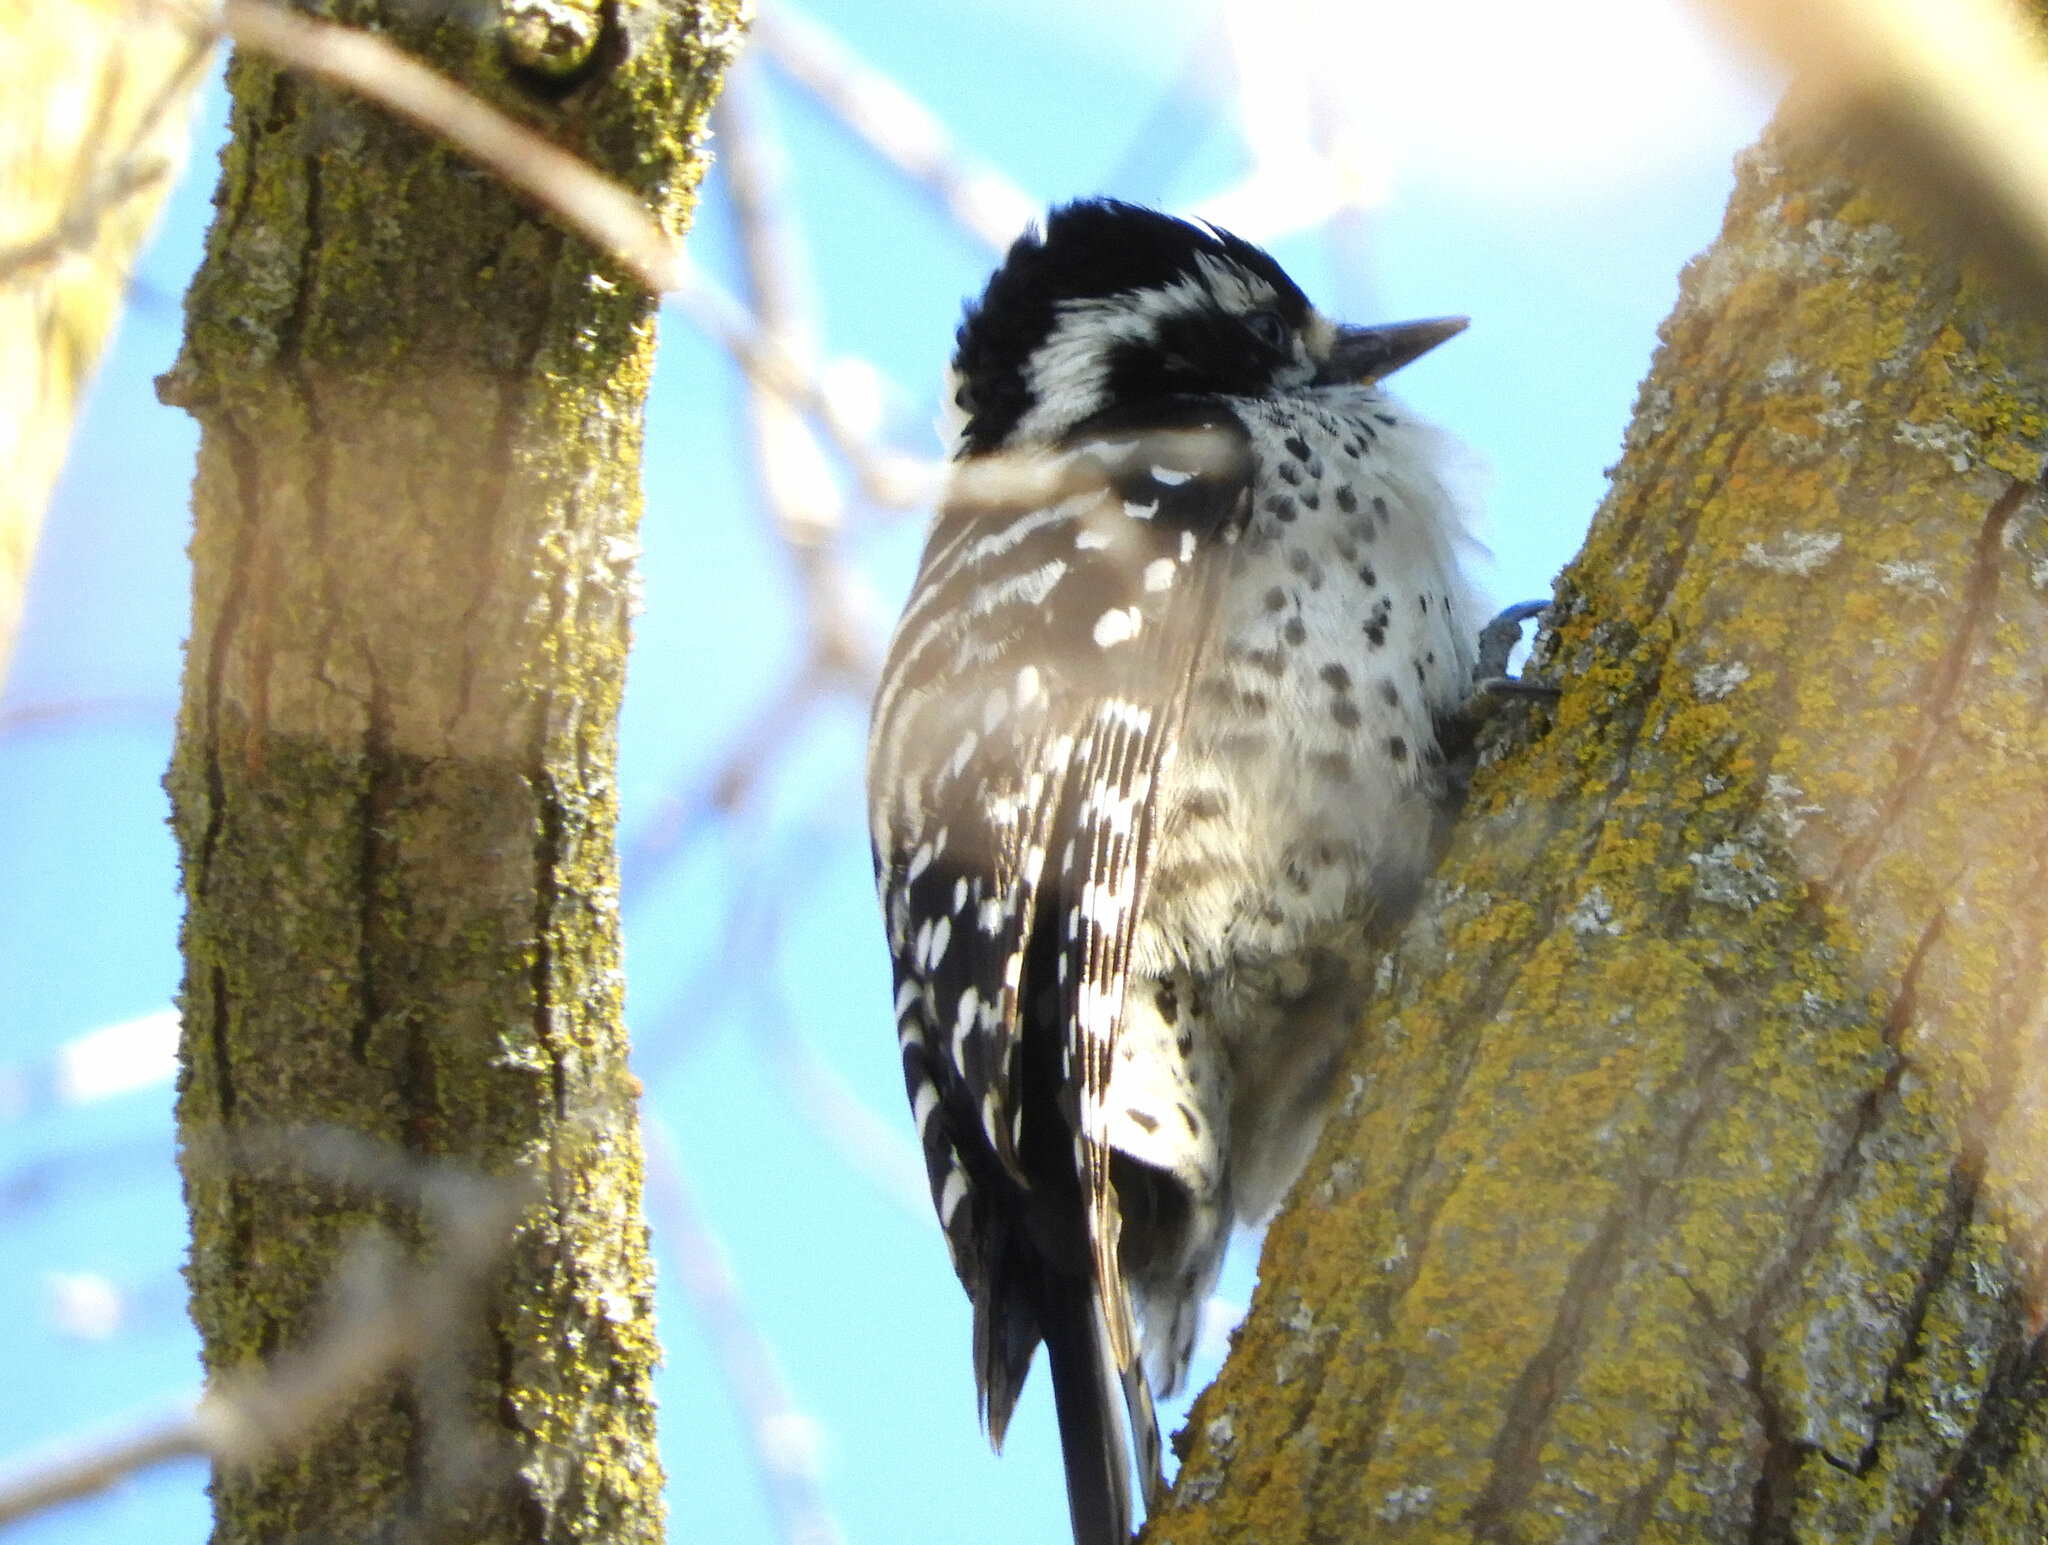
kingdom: Animalia
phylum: Chordata
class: Aves
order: Piciformes
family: Picidae
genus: Dryobates
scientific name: Dryobates nuttallii
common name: Nuttall's woodpecker
